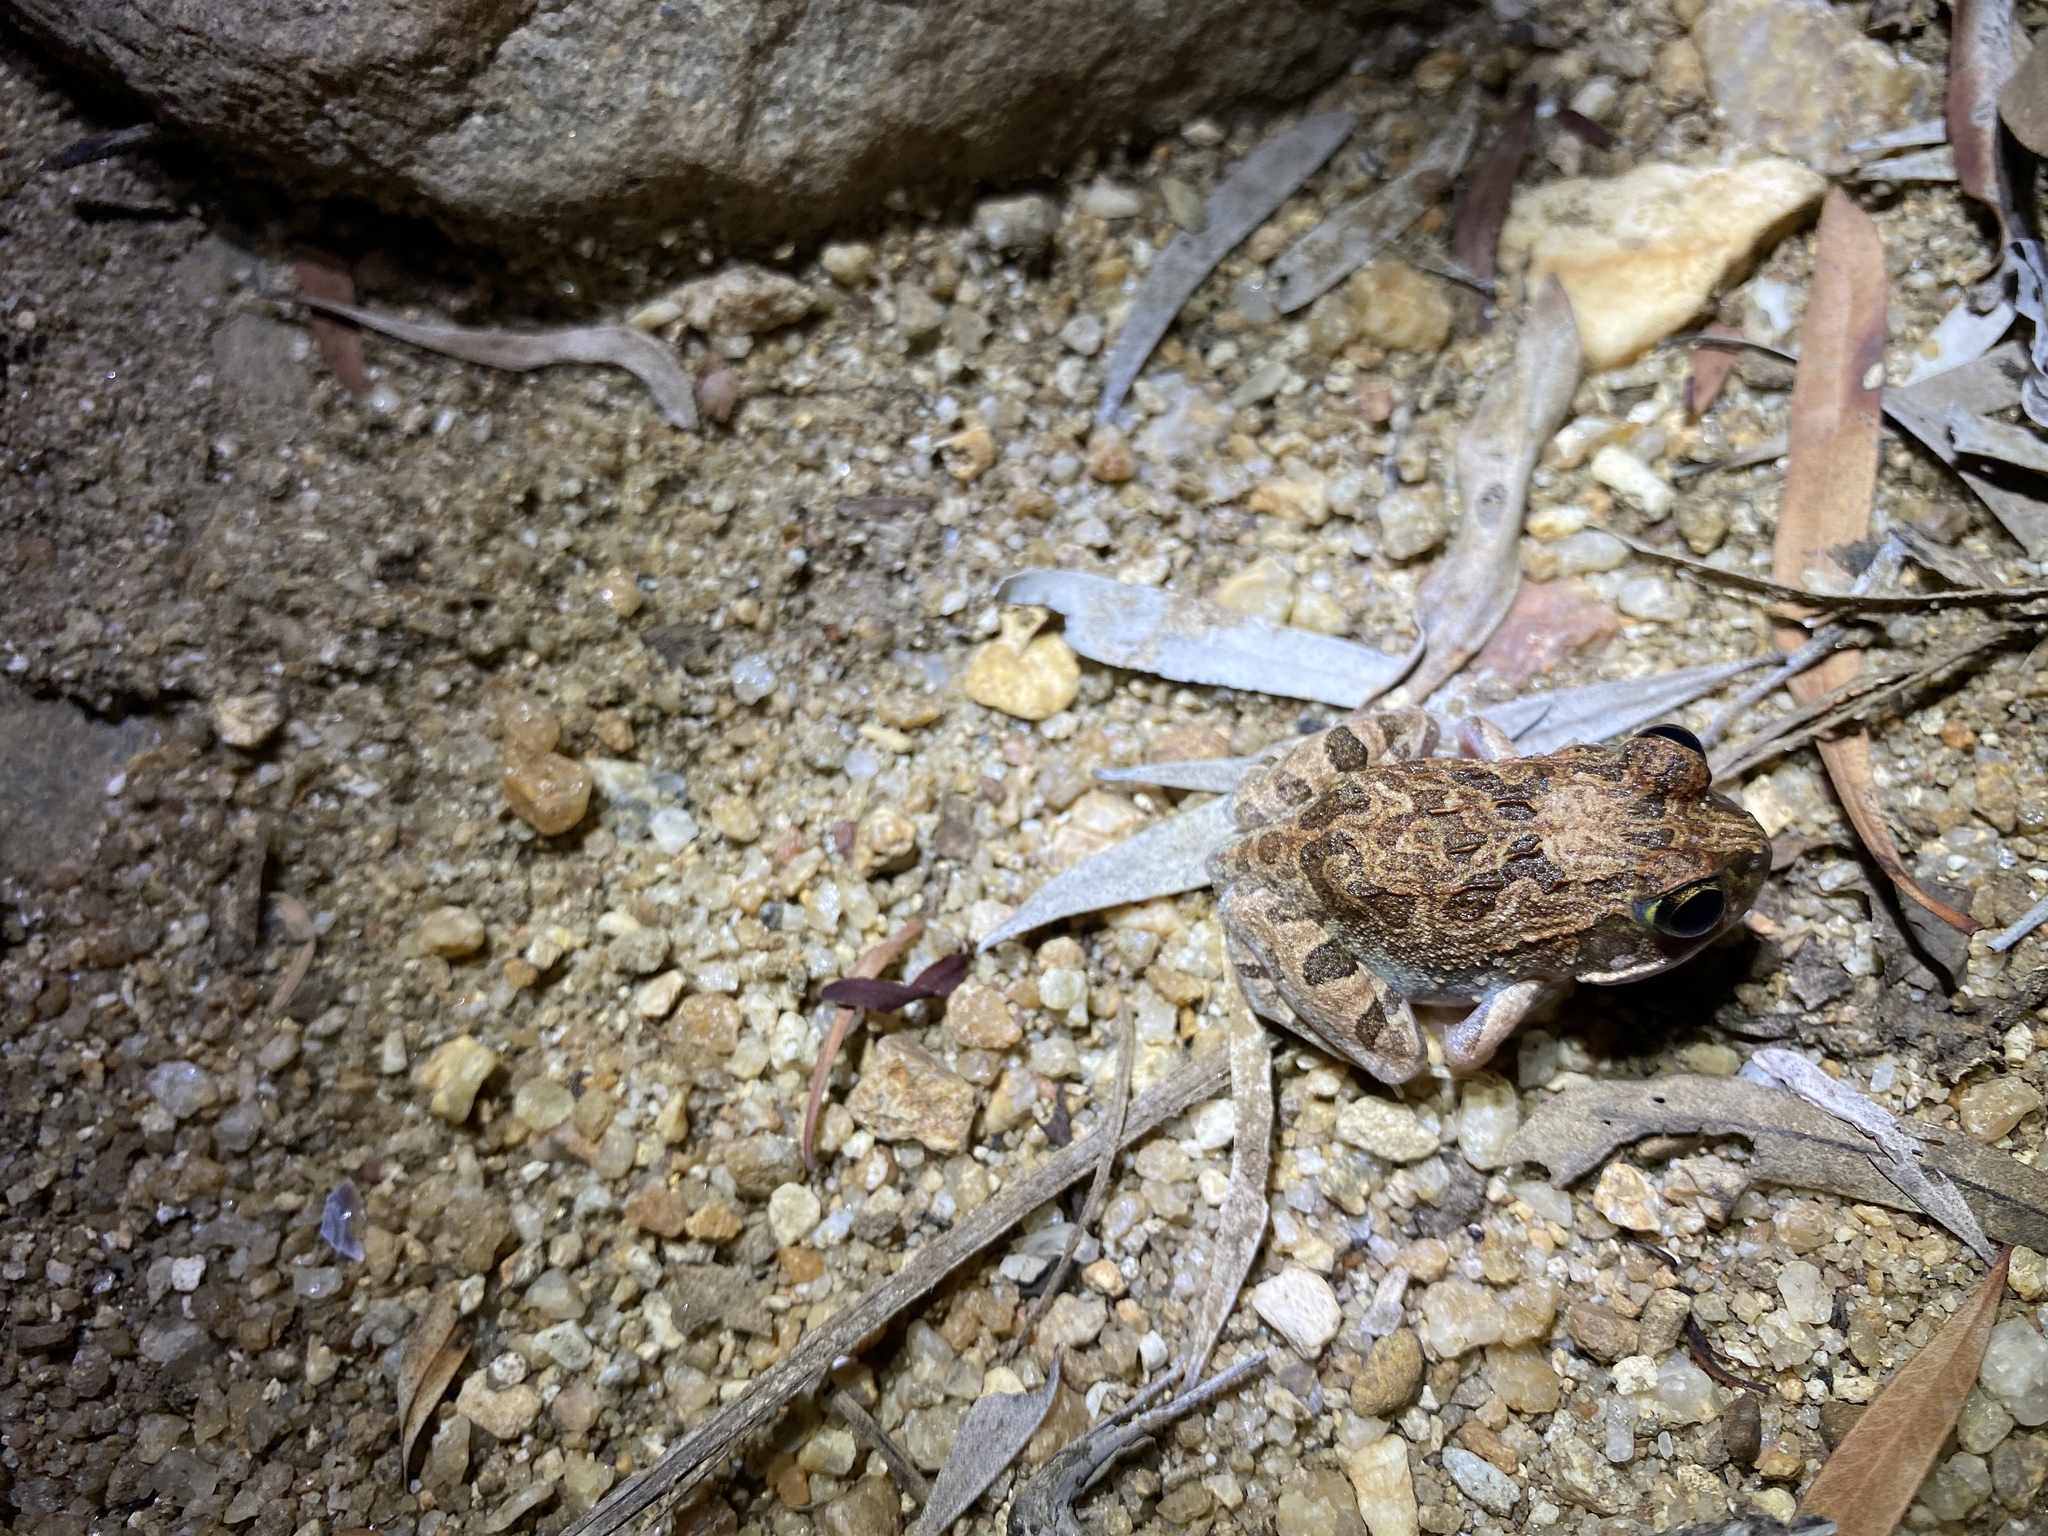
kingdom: Animalia
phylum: Chordata
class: Amphibia
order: Anura
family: Limnodynastidae
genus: Platyplectrum
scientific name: Platyplectrum ornatum
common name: Ornate burrowing frog
